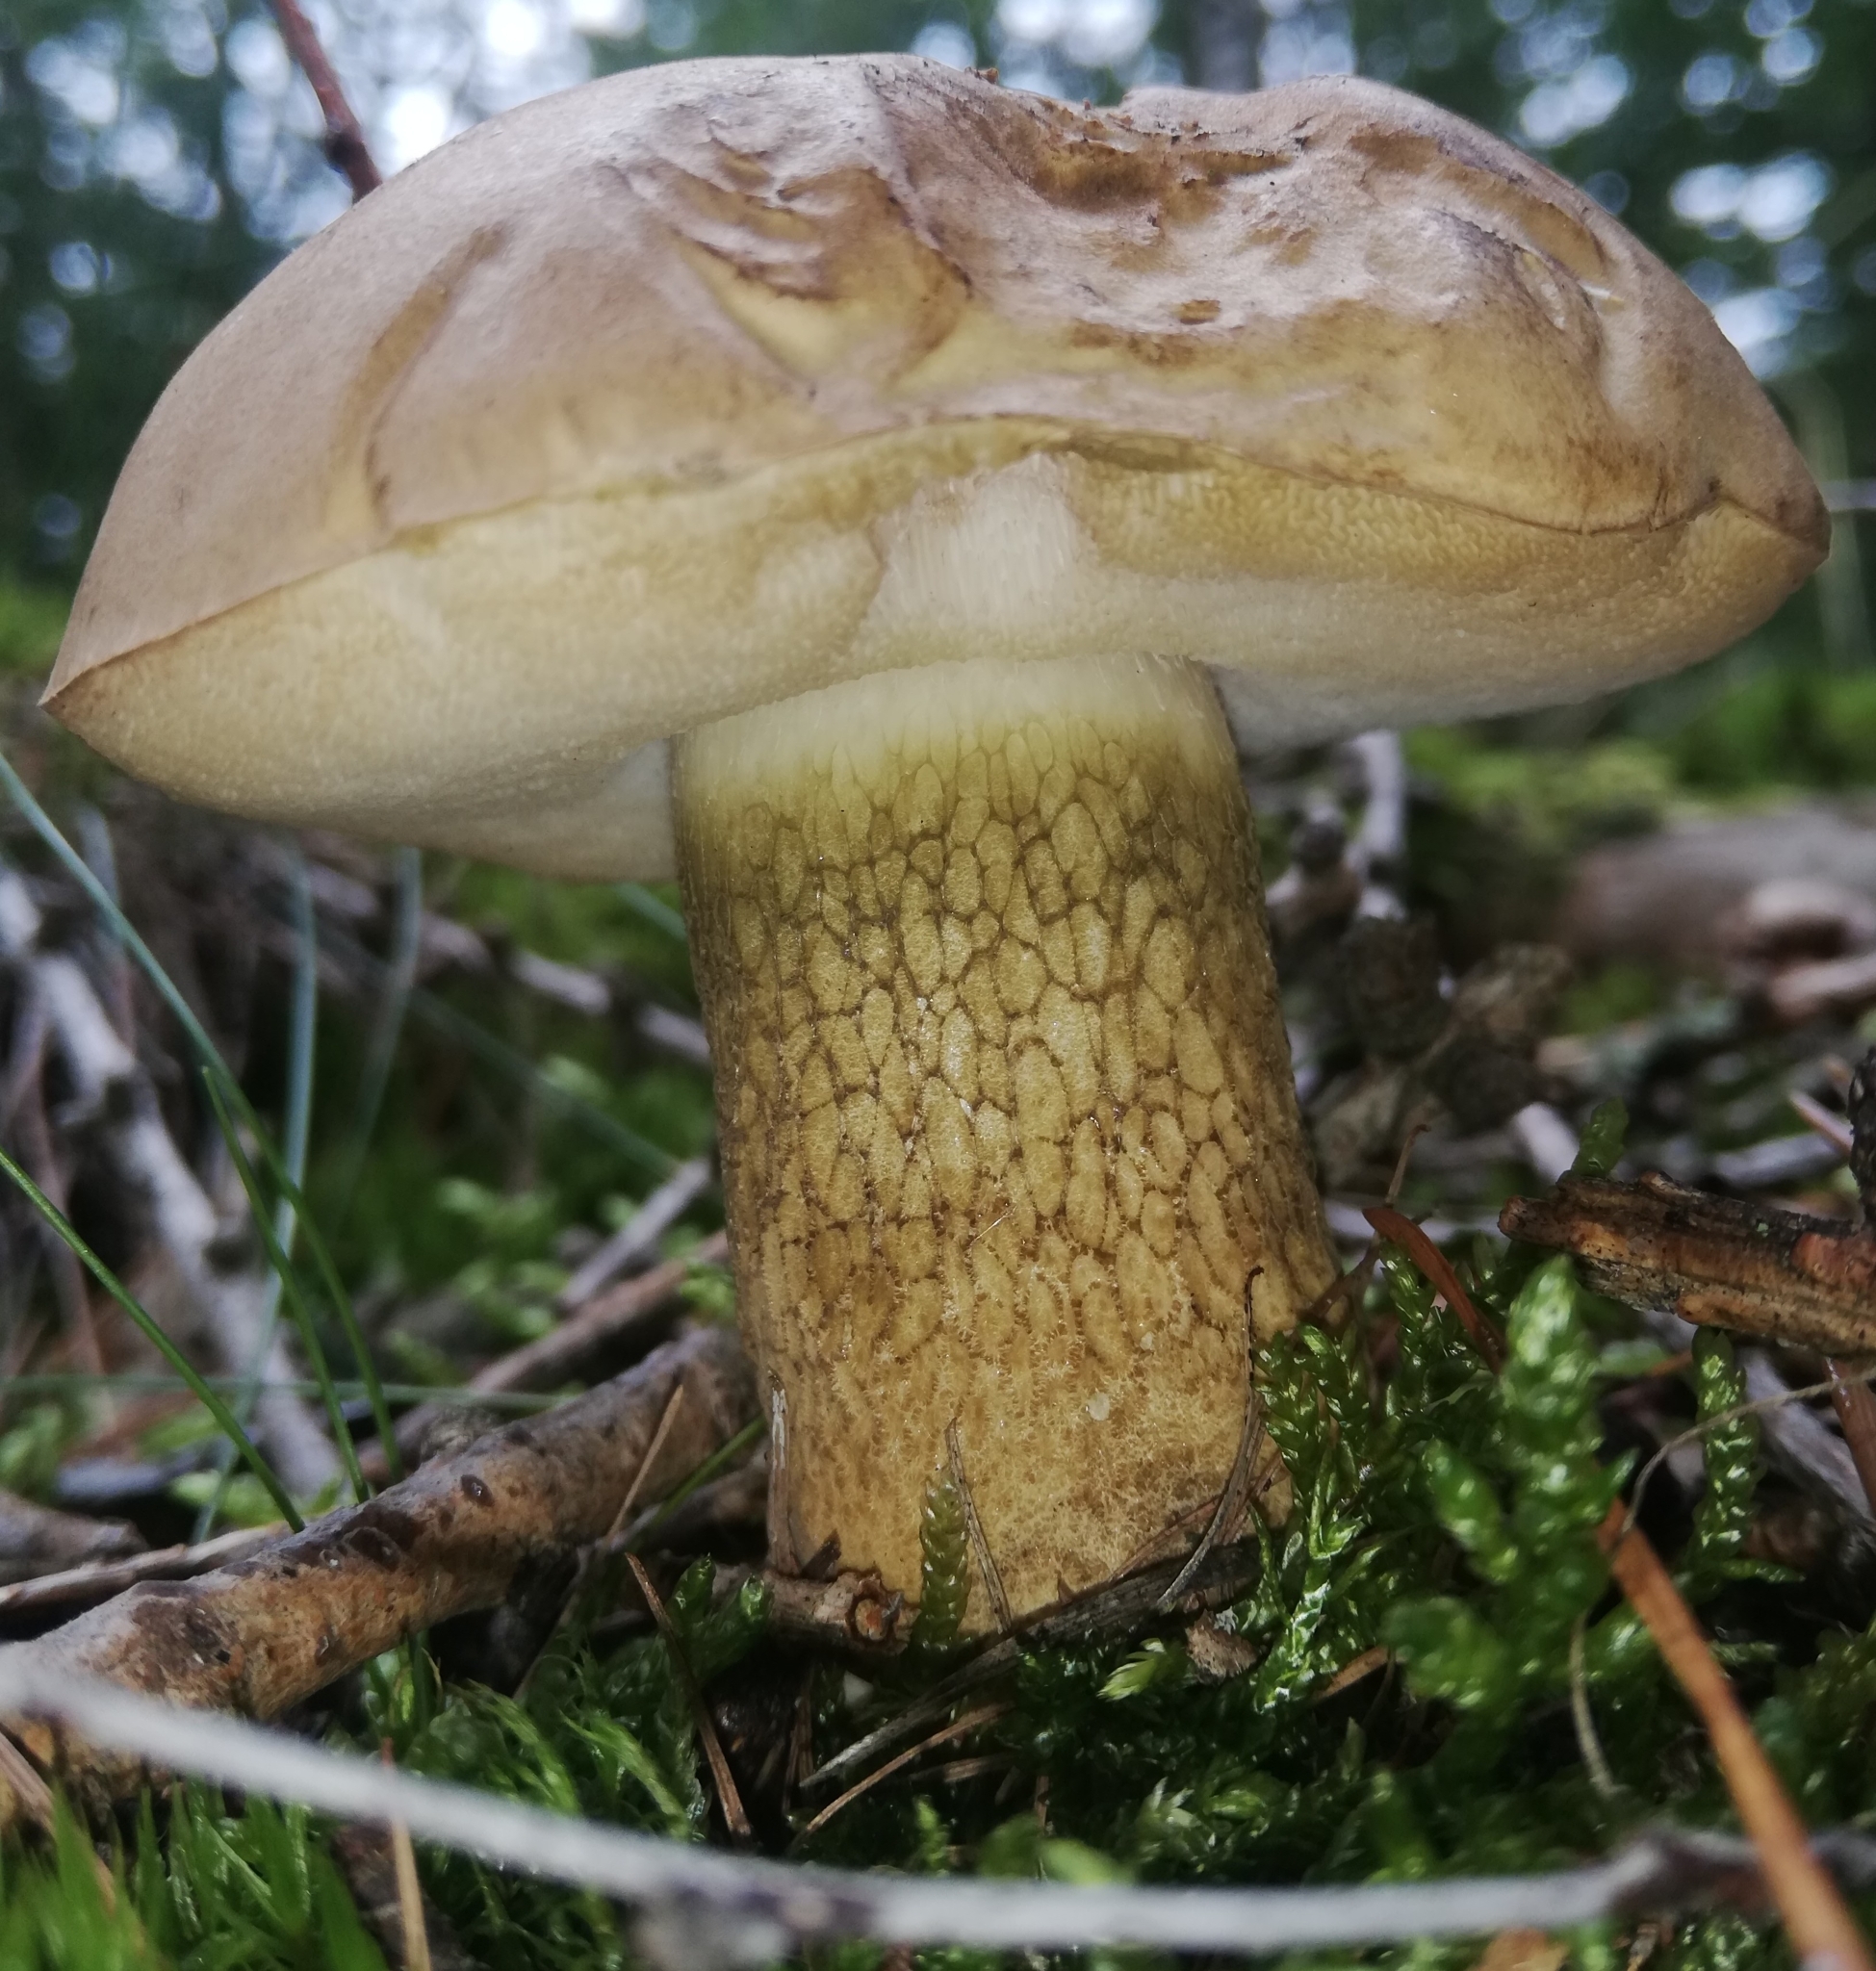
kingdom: Fungi
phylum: Basidiomycota
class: Agaricomycetes
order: Boletales
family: Boletaceae
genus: Tylopilus
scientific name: Tylopilus felleus
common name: Bitter bolete
